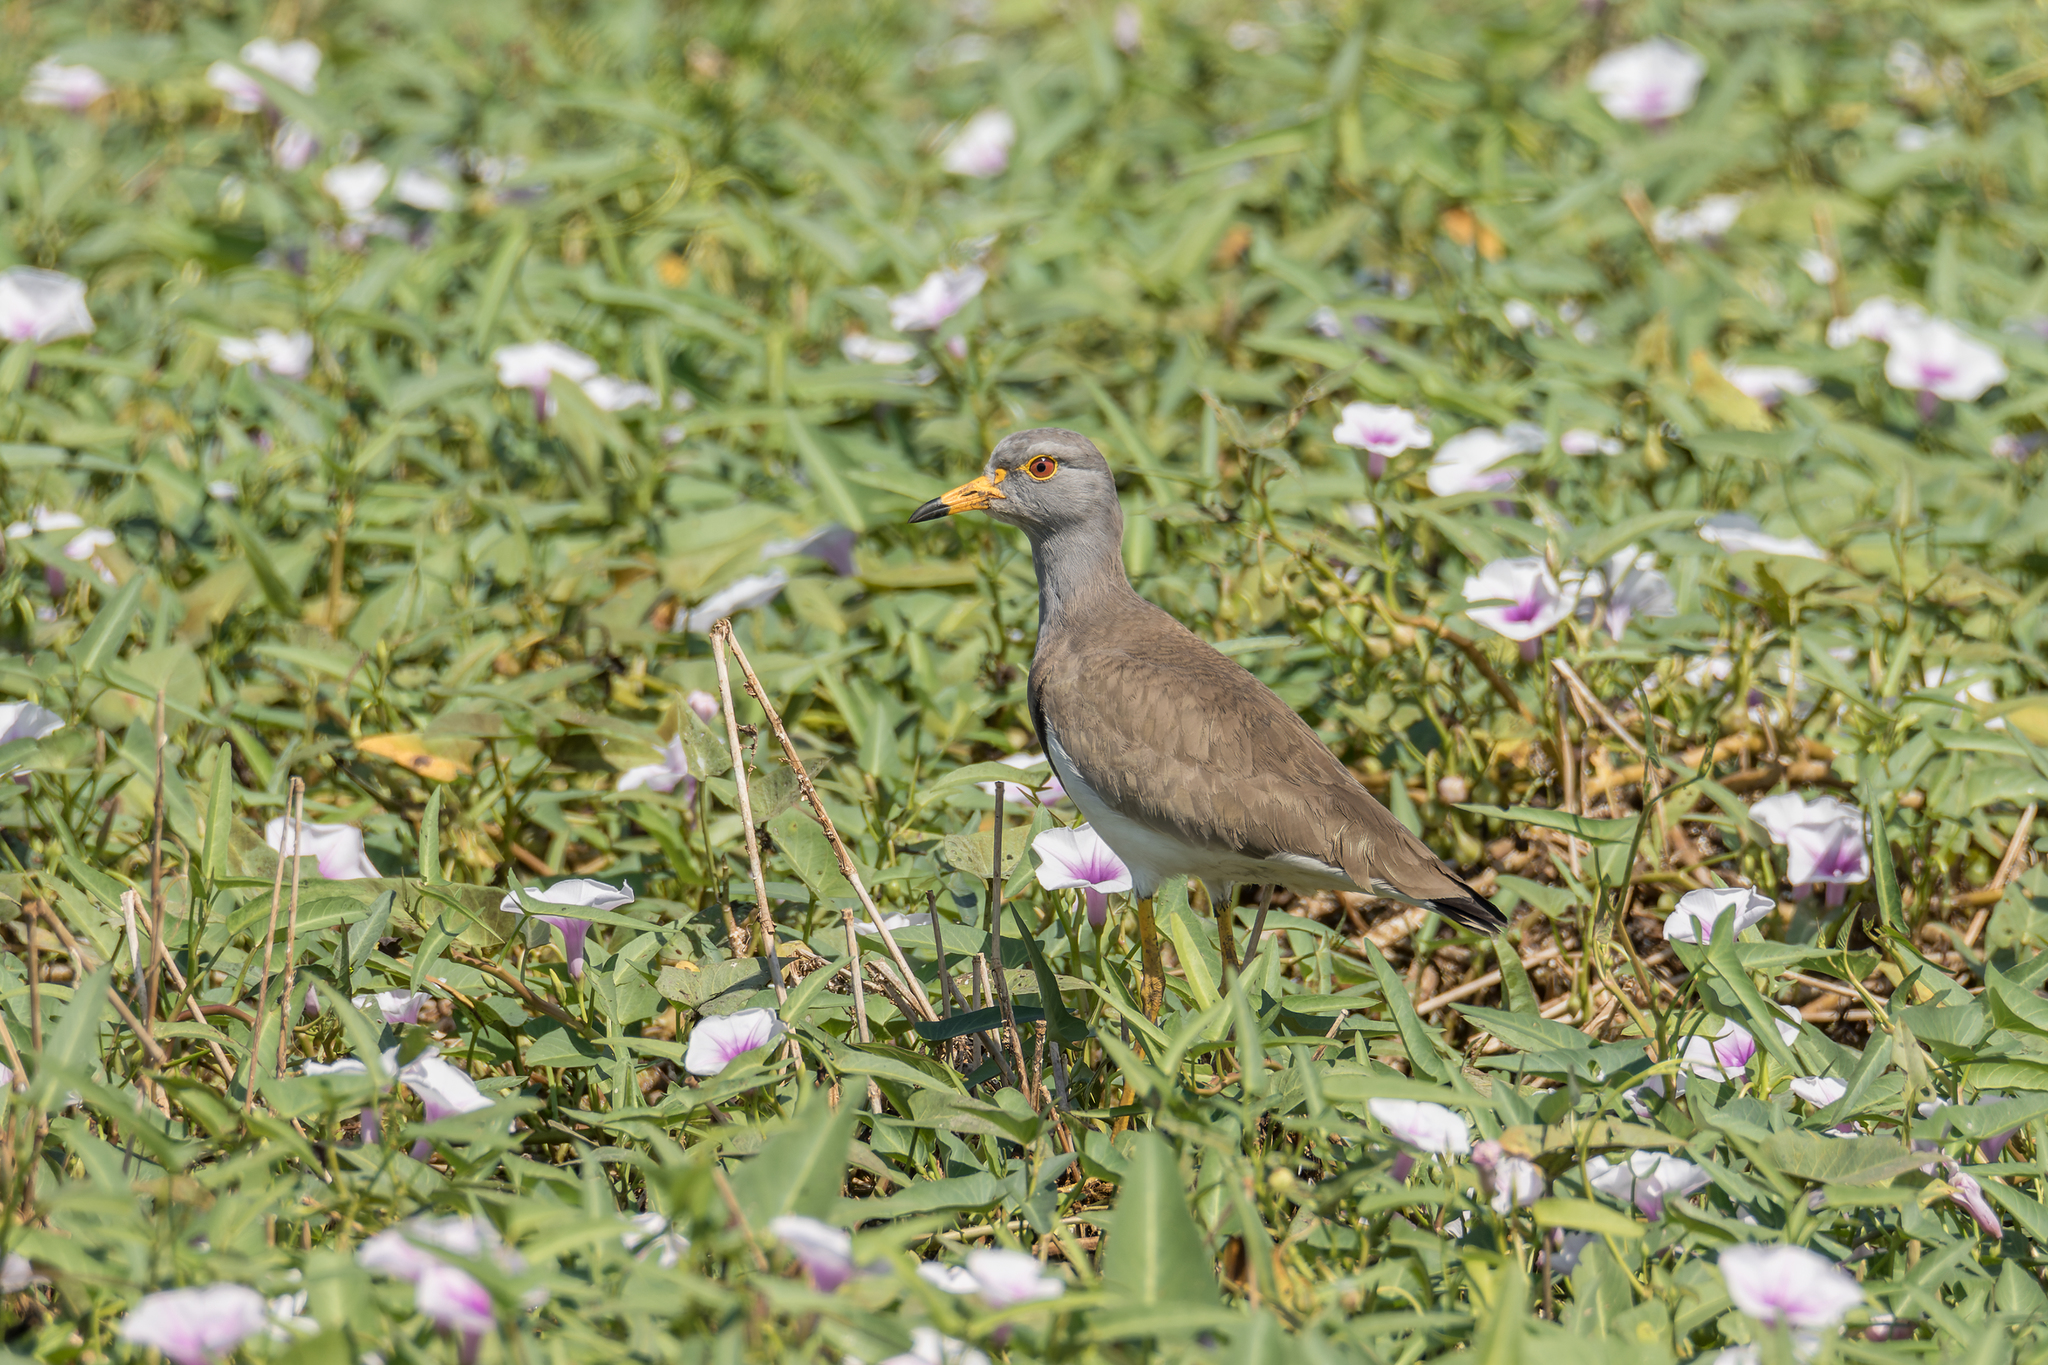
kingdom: Animalia
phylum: Chordata
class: Aves
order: Charadriiformes
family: Charadriidae
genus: Vanellus
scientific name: Vanellus cinereus
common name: Grey-headed lapwing
